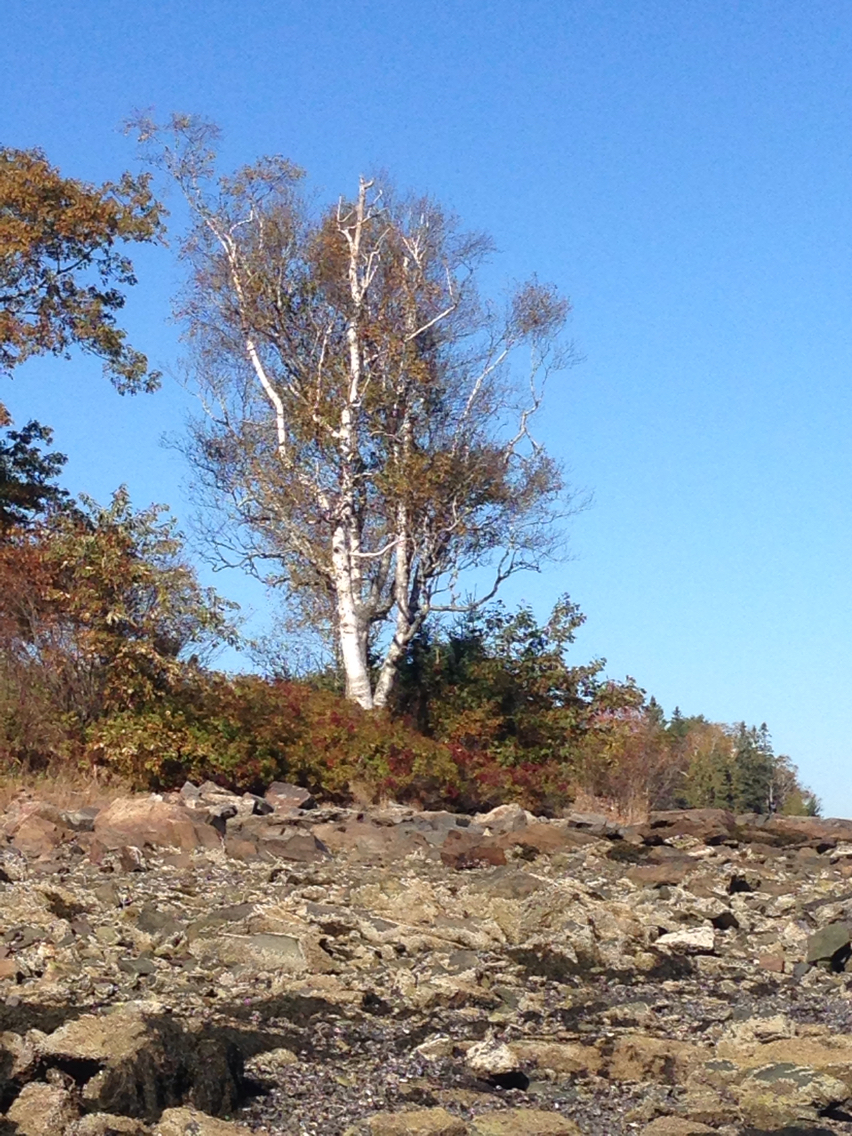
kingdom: Plantae
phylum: Tracheophyta
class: Magnoliopsida
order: Fagales
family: Betulaceae
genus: Betula
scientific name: Betula papyrifera
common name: Paper birch
